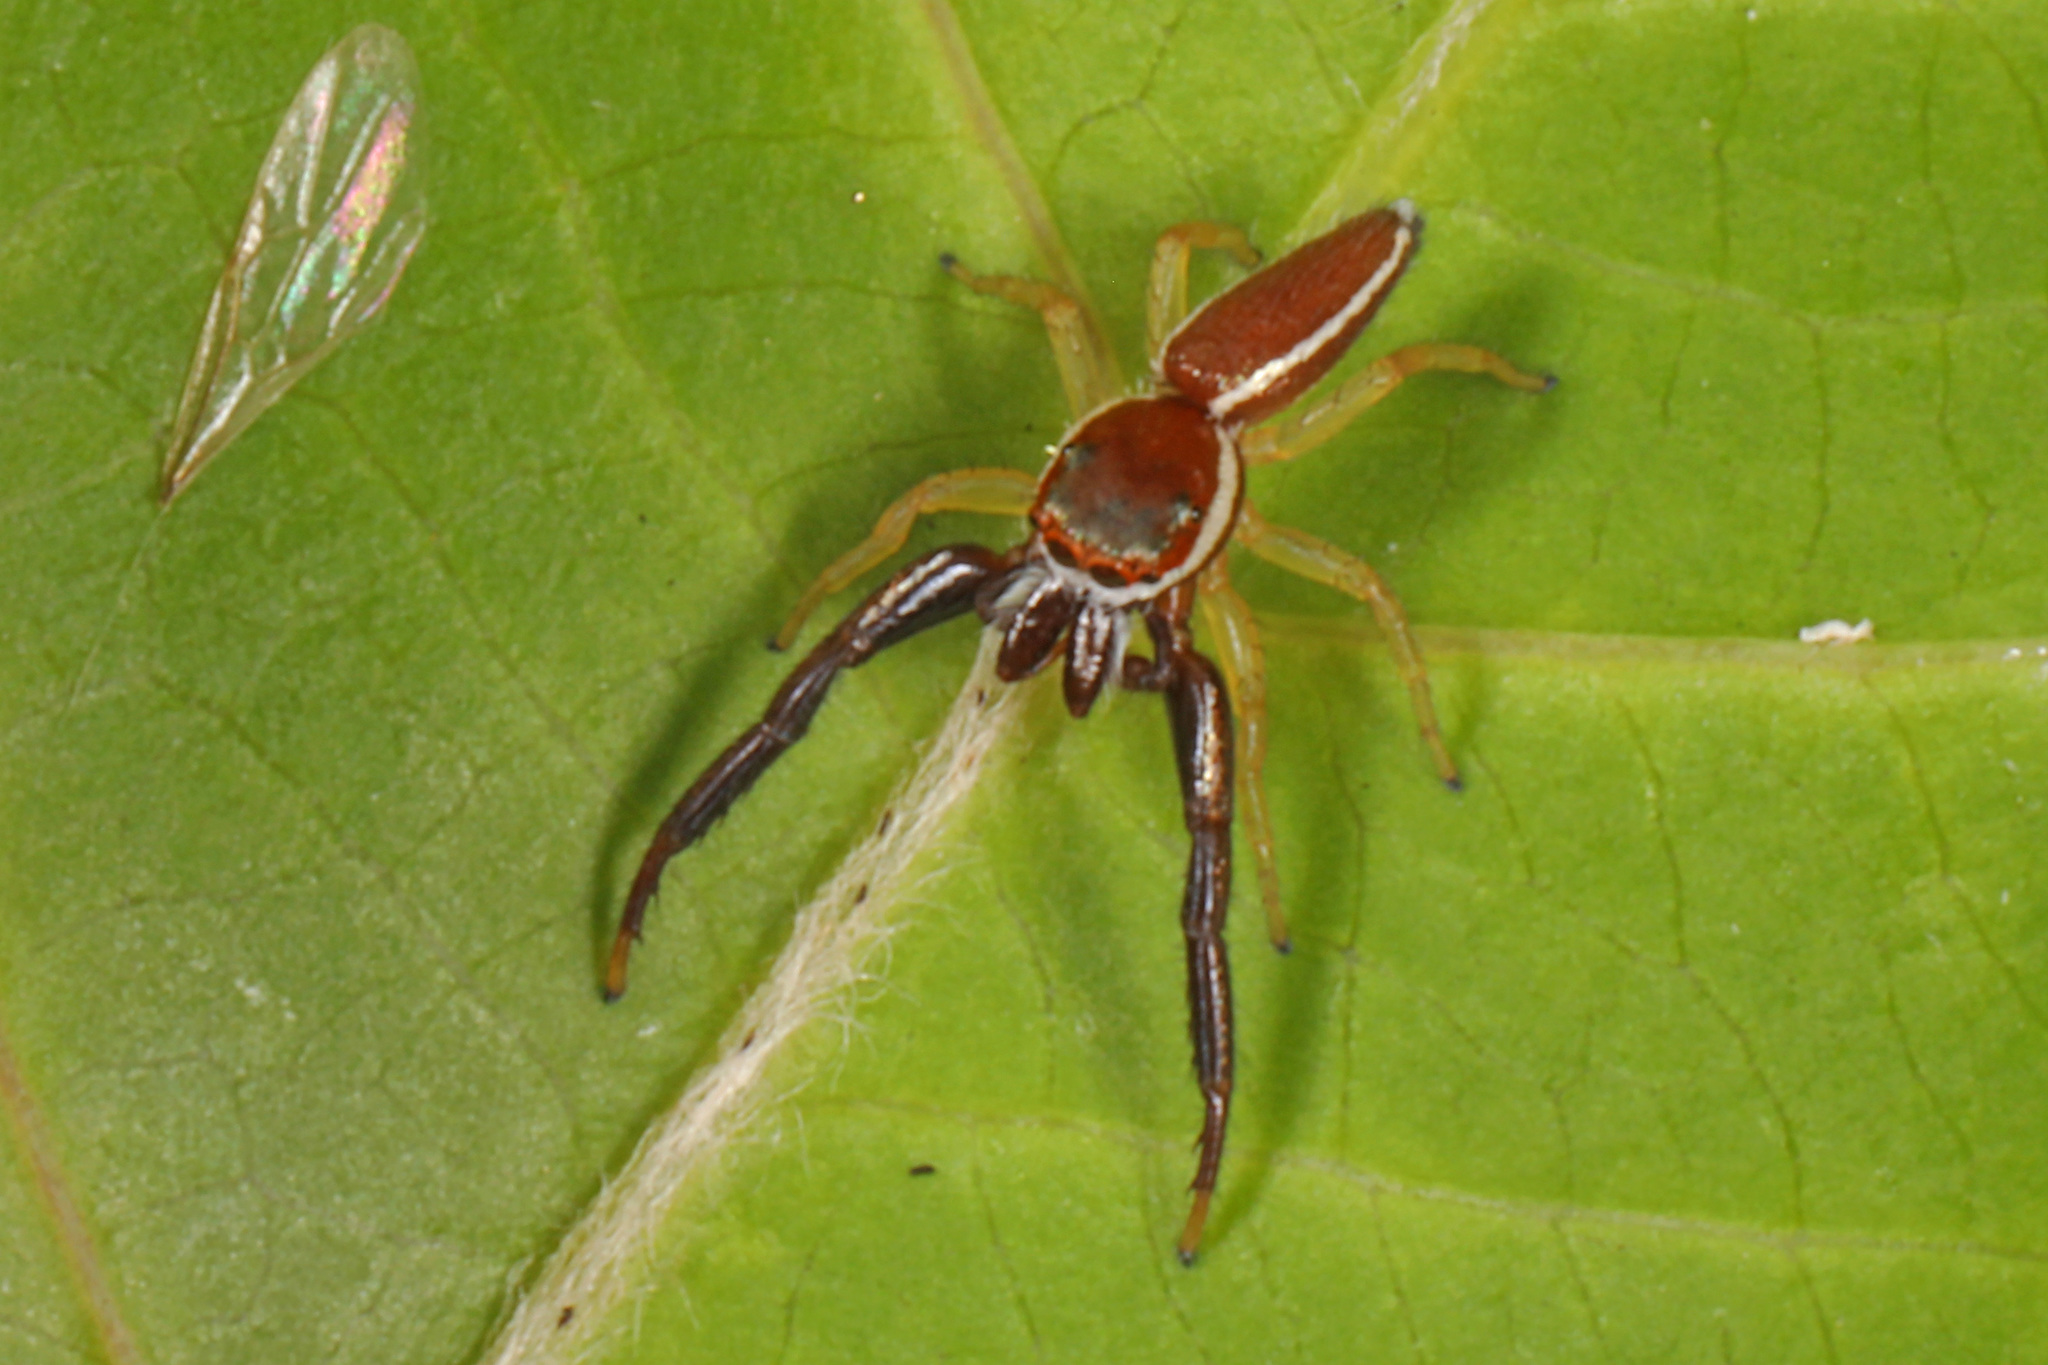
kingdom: Animalia
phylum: Arthropoda
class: Arachnida
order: Araneae
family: Salticidae
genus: Hentzia
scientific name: Hentzia palmarum
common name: Common hentz jumping spider
